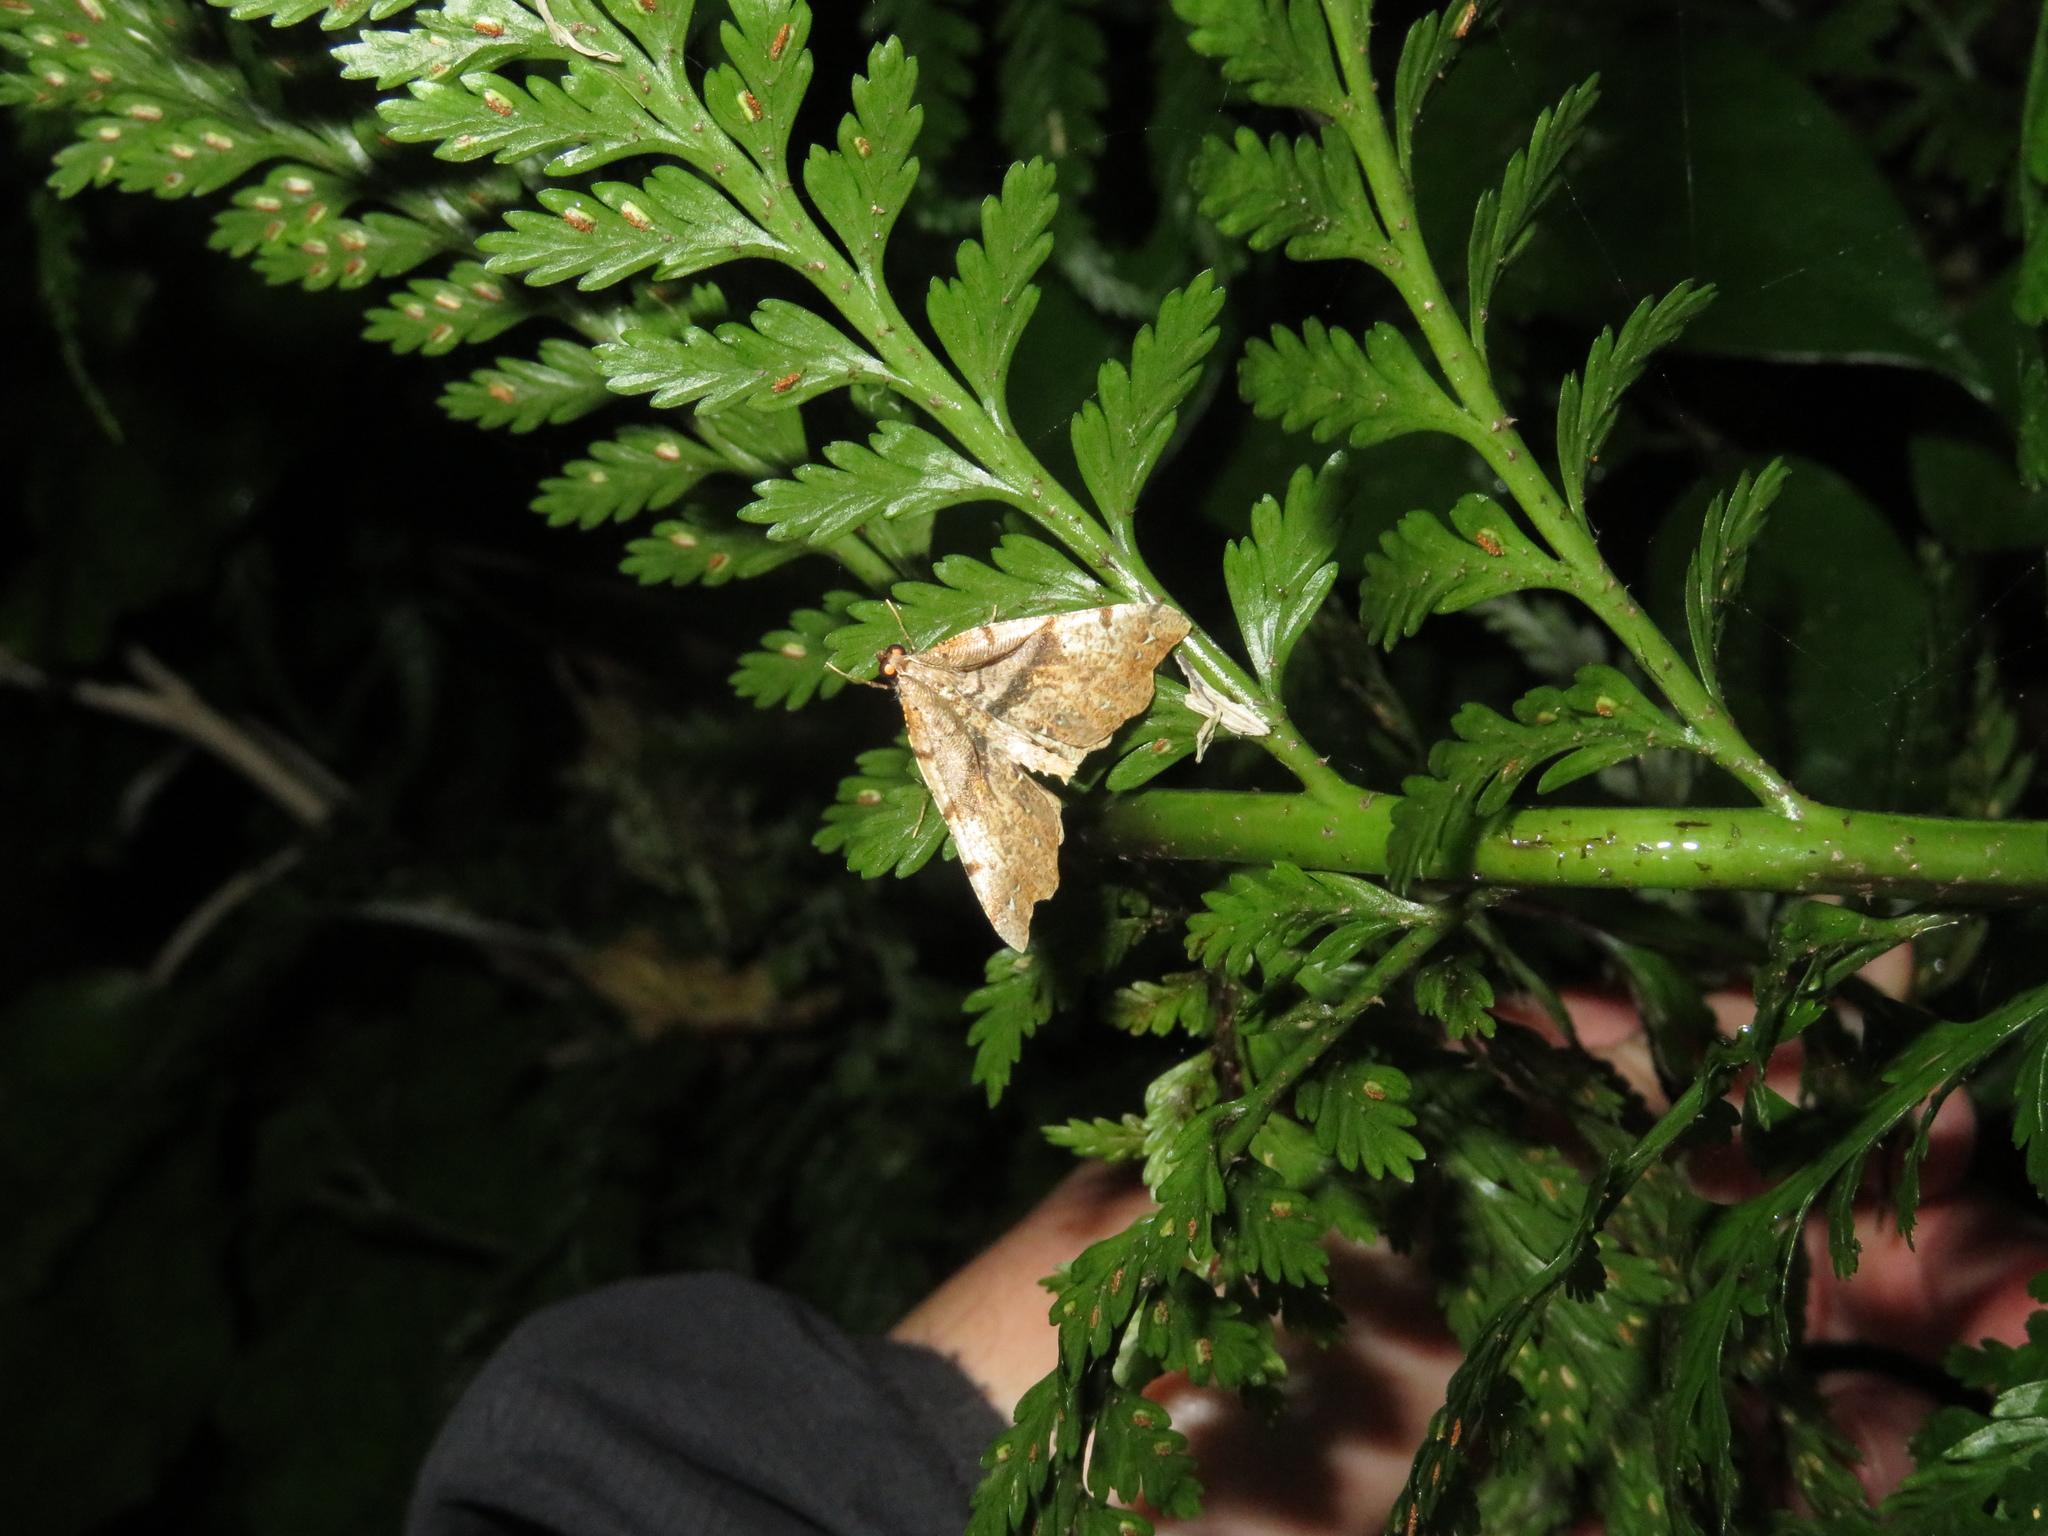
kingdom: Animalia
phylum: Arthropoda
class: Insecta
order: Lepidoptera
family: Geometridae
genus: Chalastra
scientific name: Chalastra pellurgata
